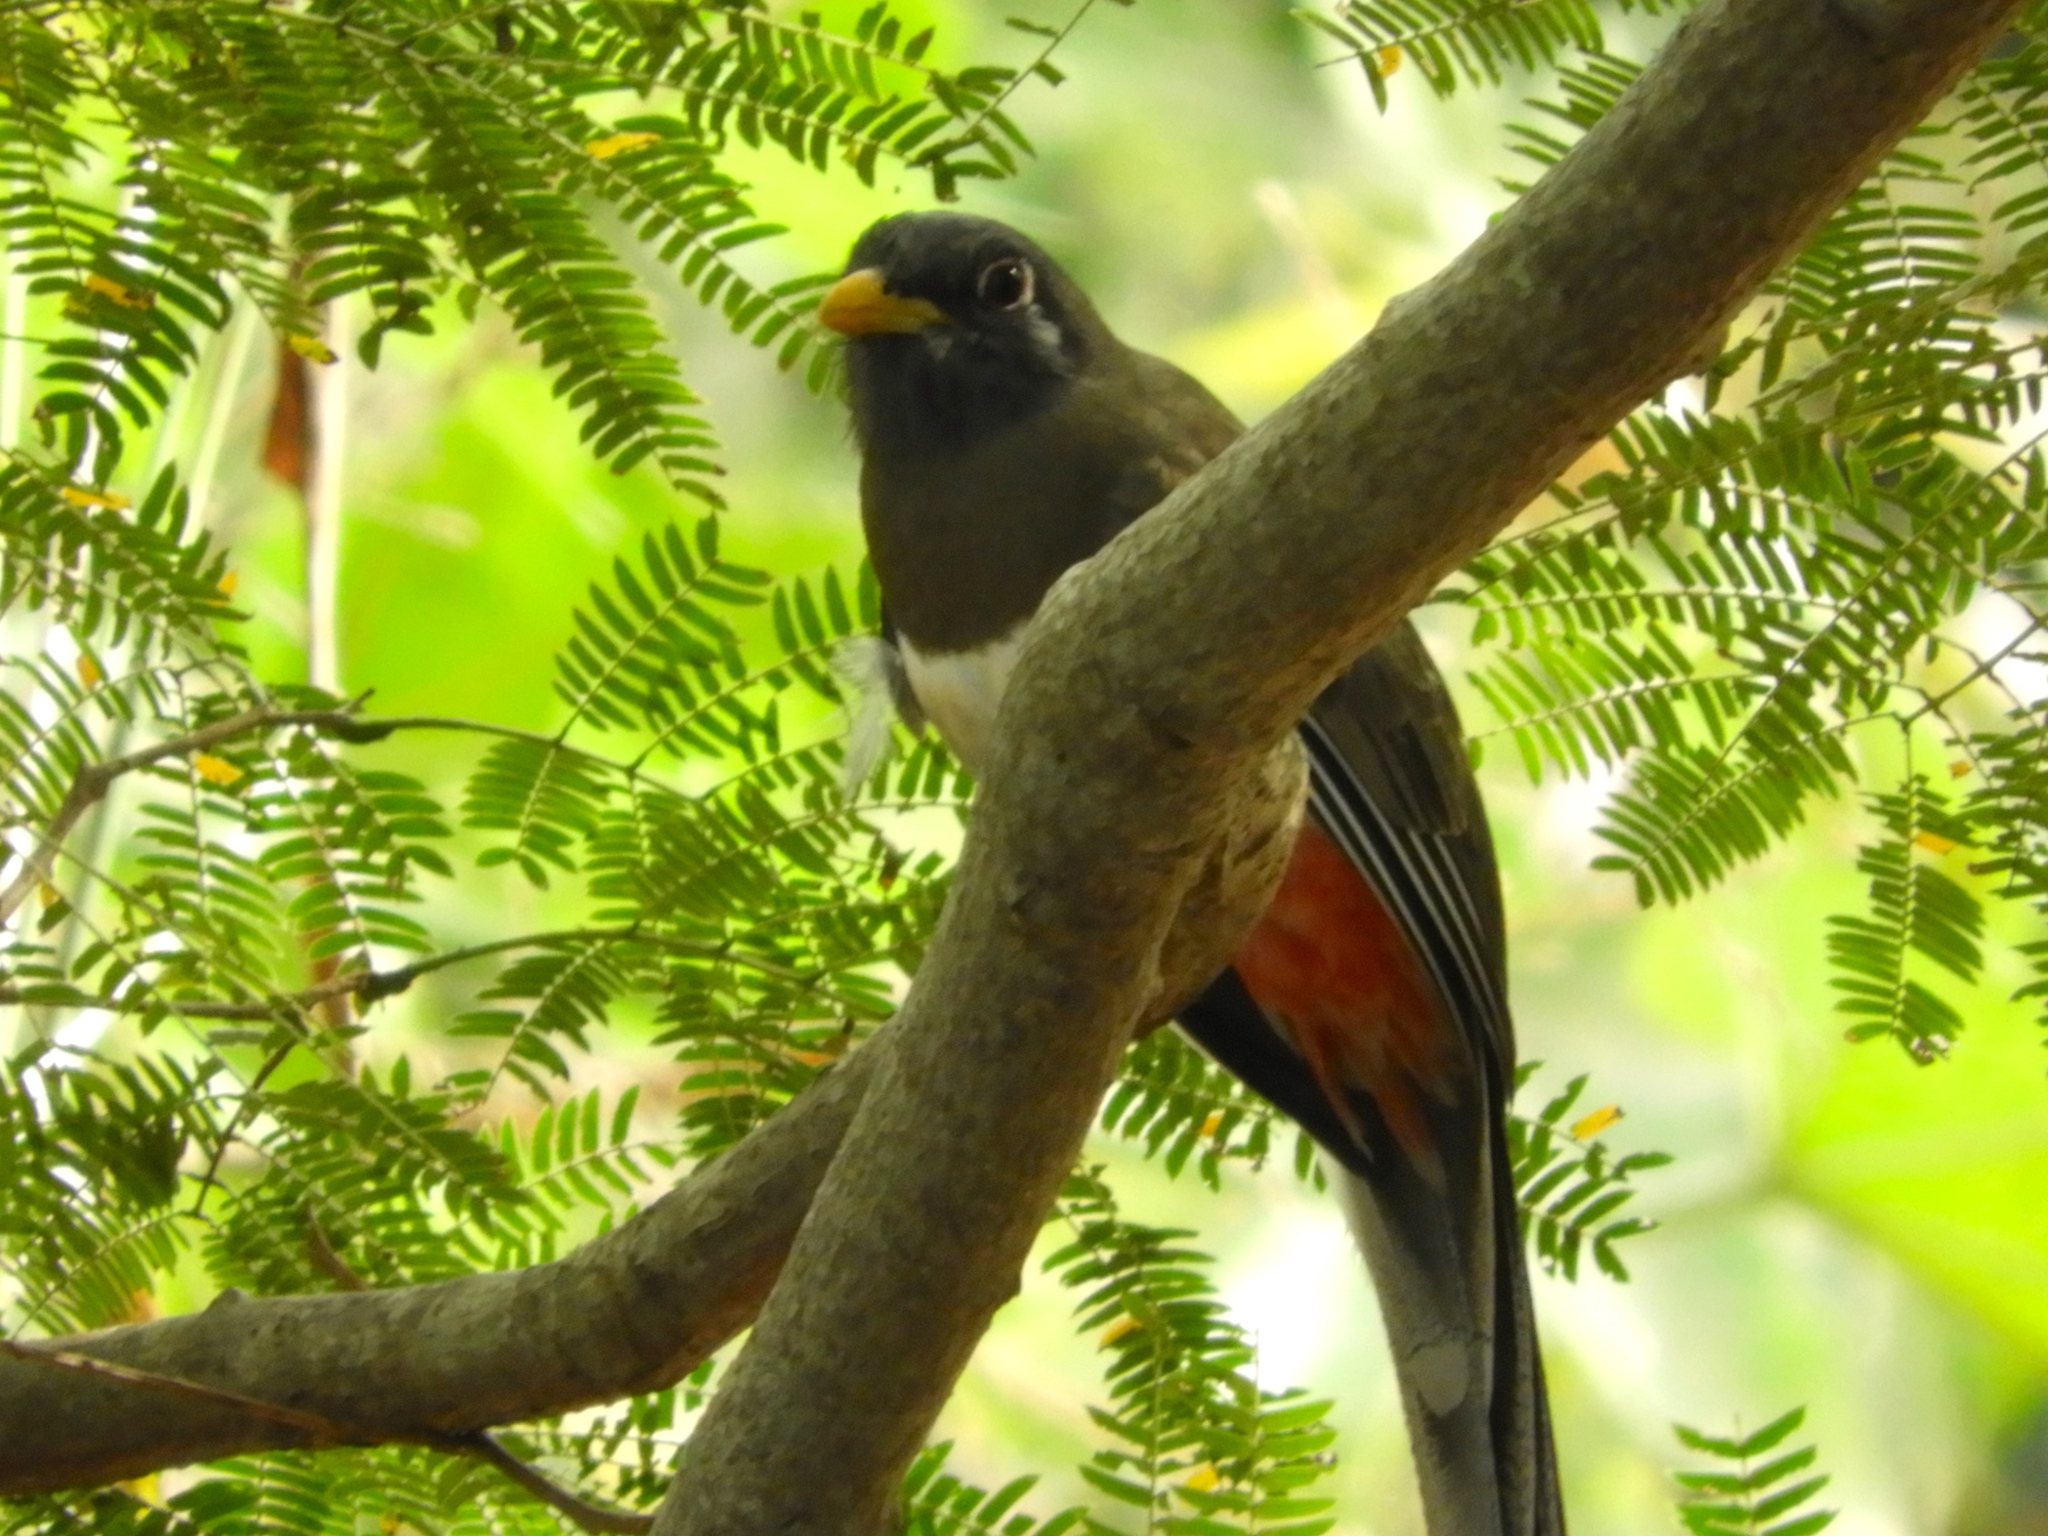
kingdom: Animalia
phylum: Chordata
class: Aves
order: Trogoniformes
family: Trogonidae
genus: Trogon
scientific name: Trogon elegans
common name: Elegant trogon
